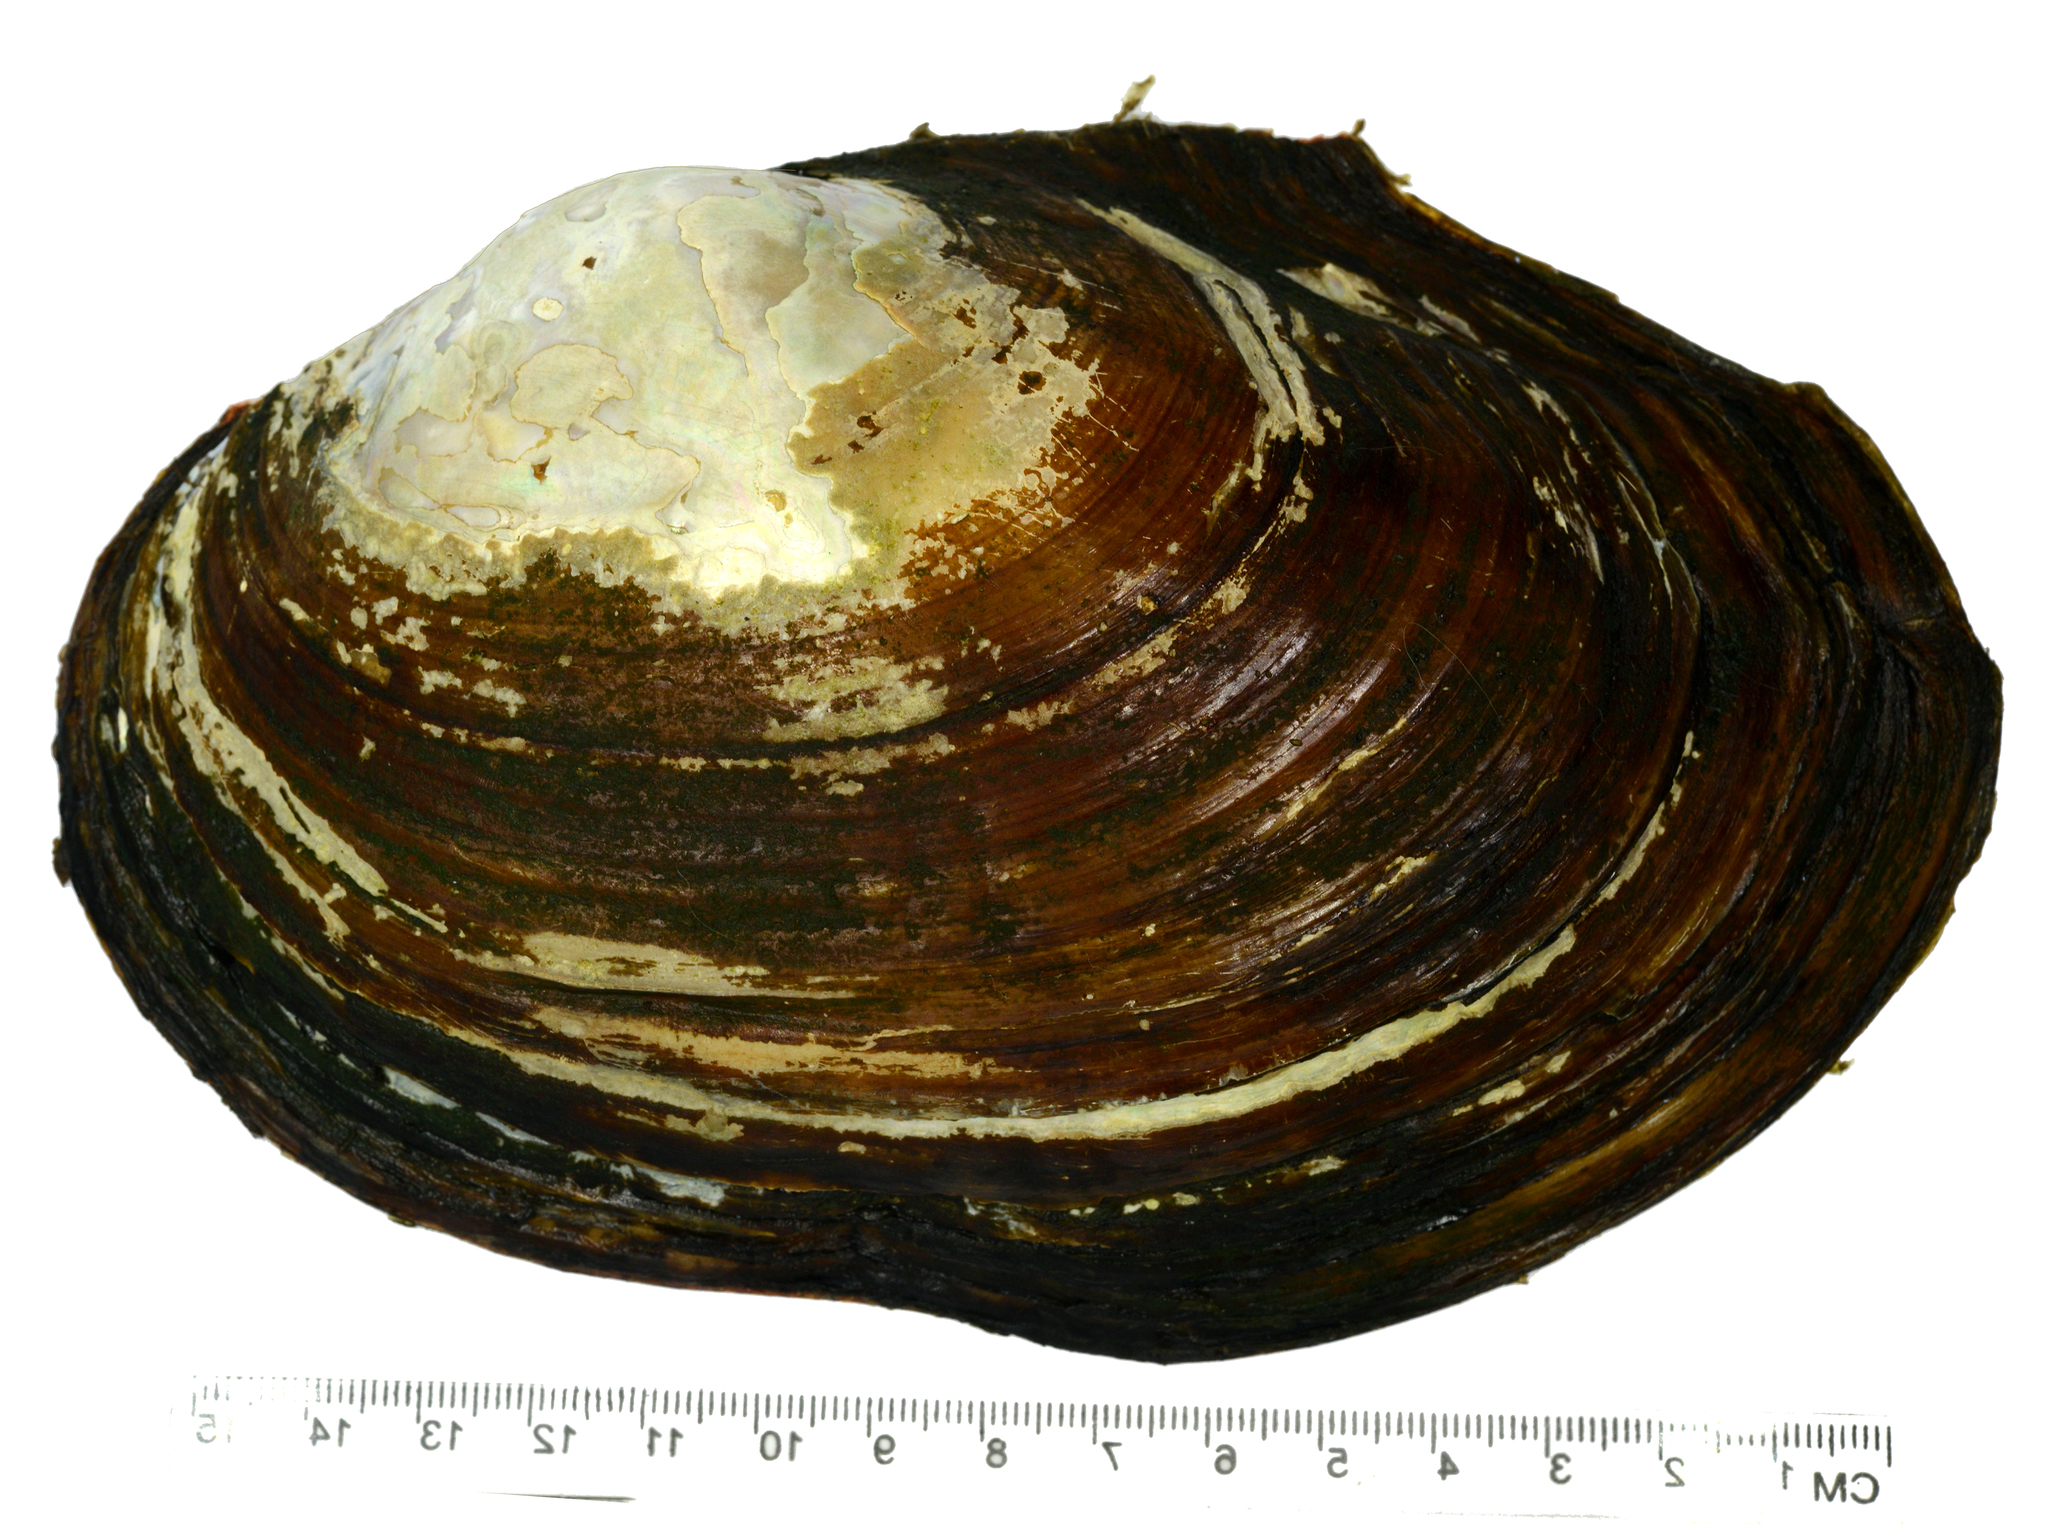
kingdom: Animalia
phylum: Mollusca
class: Bivalvia
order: Unionida
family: Unionidae
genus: Sinanodonta
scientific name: Sinanodonta lauta
